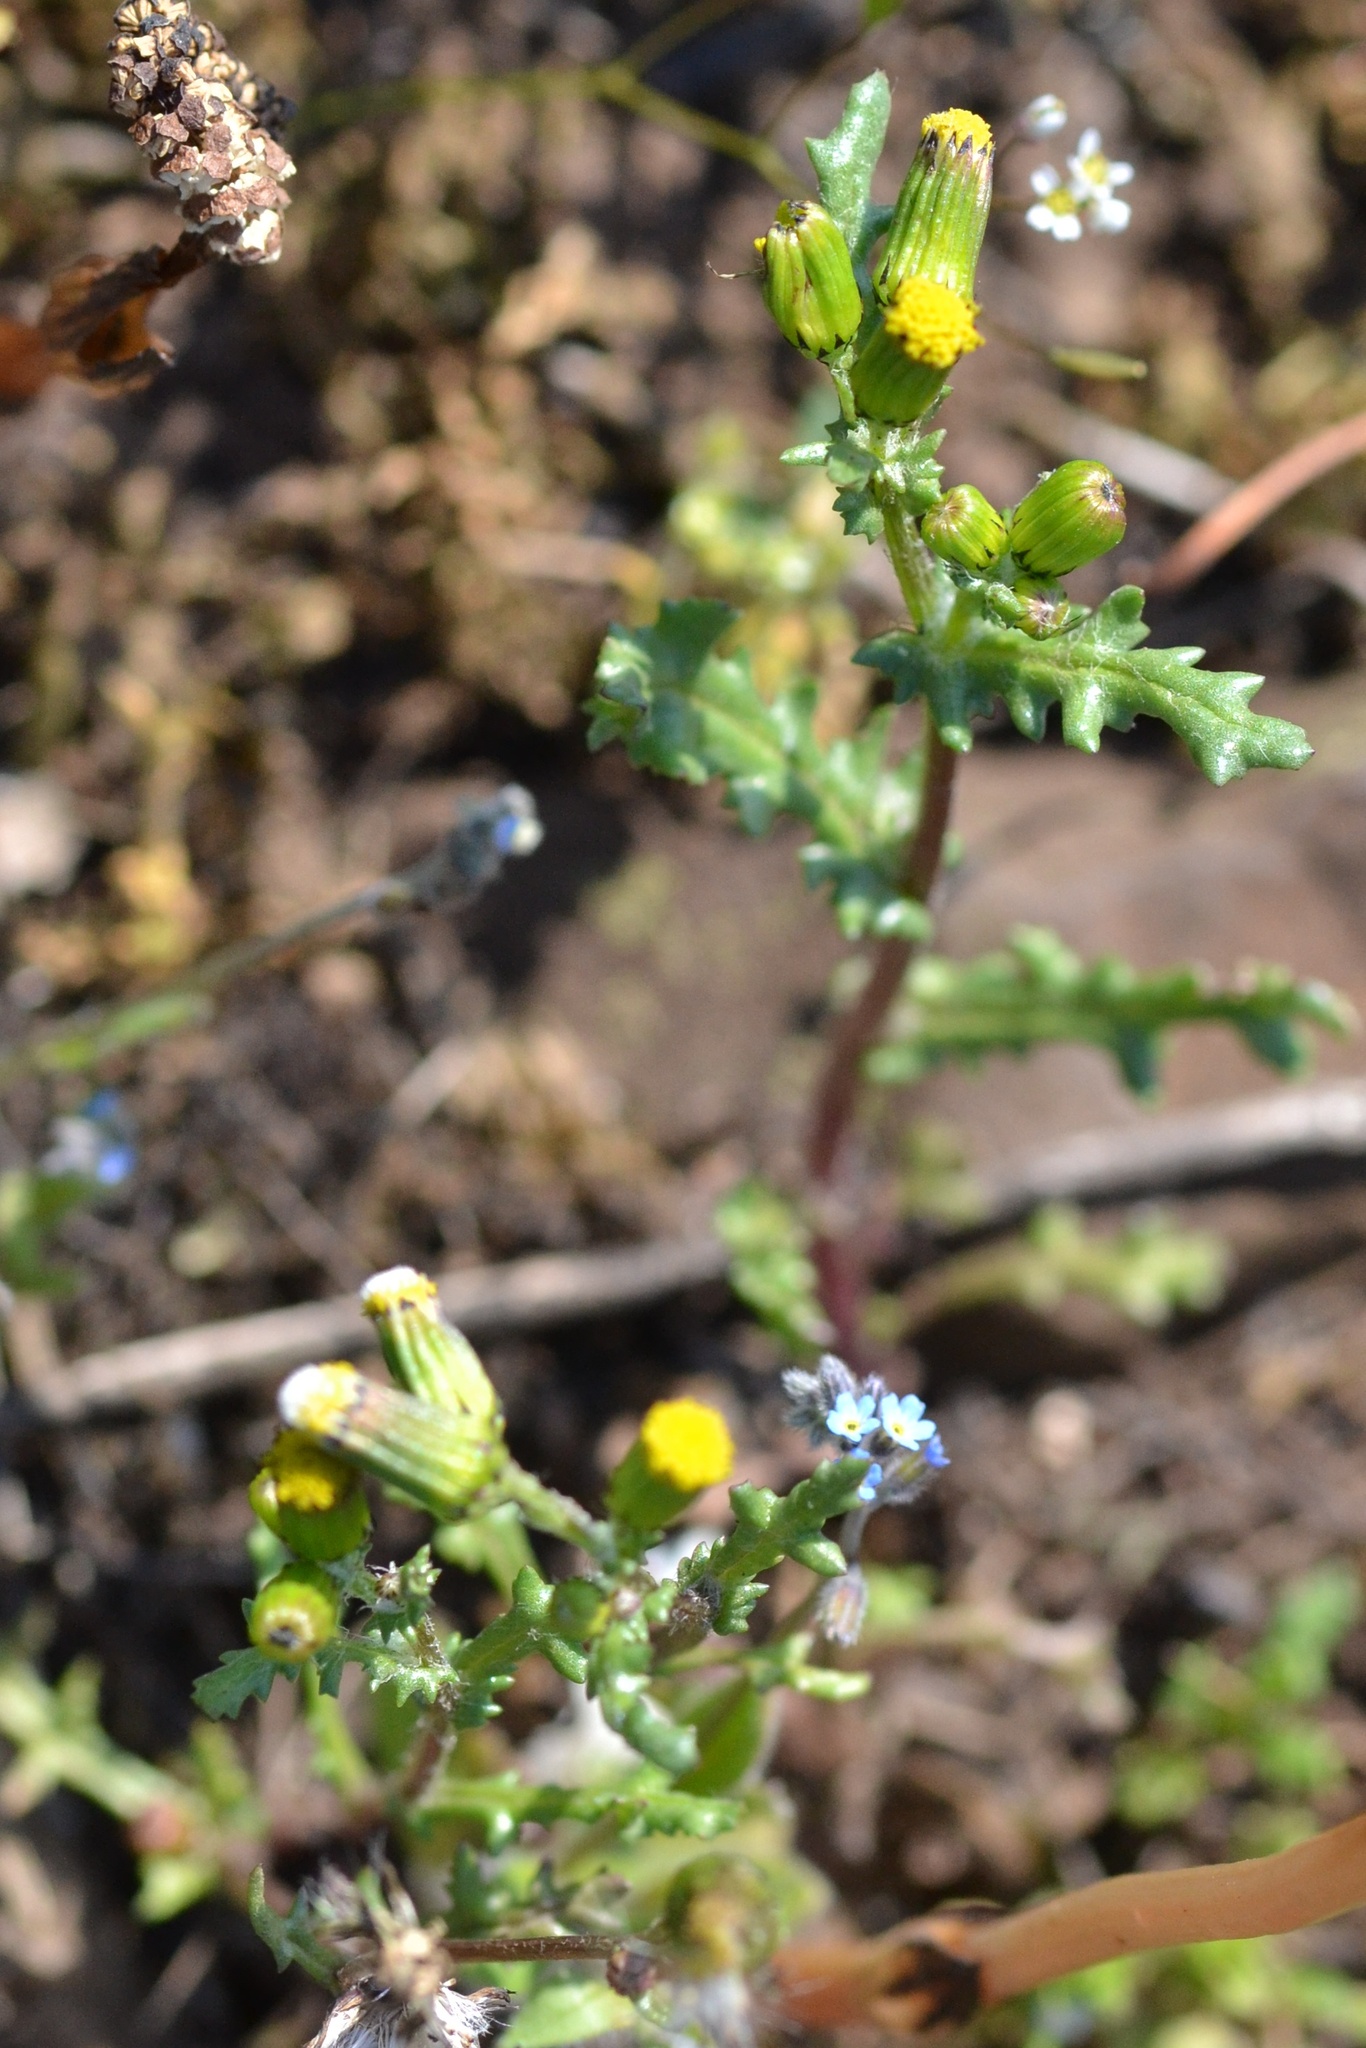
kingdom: Plantae
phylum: Tracheophyta
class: Magnoliopsida
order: Asterales
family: Asteraceae
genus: Senecio
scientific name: Senecio vulgaris
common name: Old-man-in-the-spring
